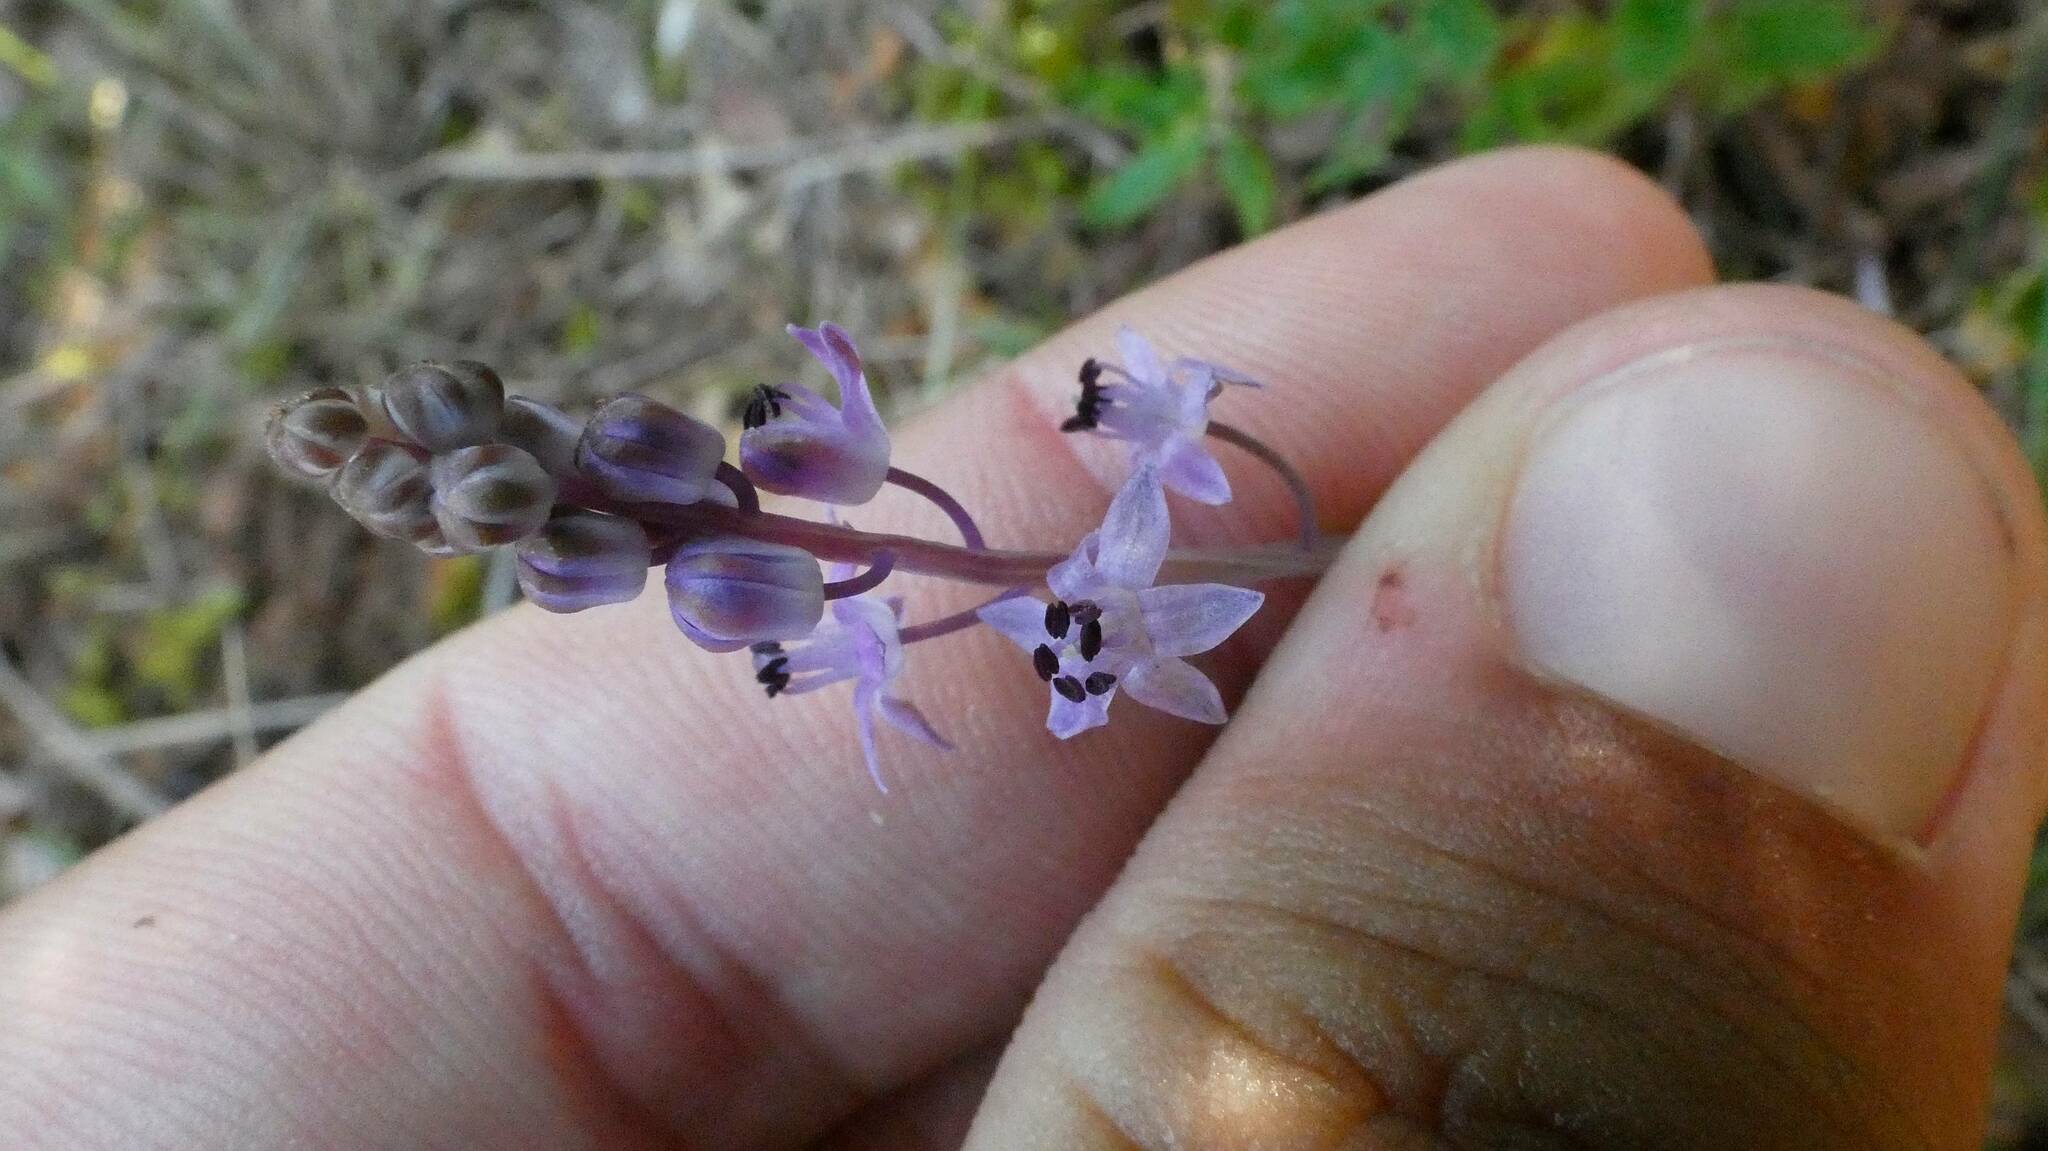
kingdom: Plantae
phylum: Tracheophyta
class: Liliopsida
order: Asparagales
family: Asparagaceae
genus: Prospero
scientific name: Prospero autumnale
